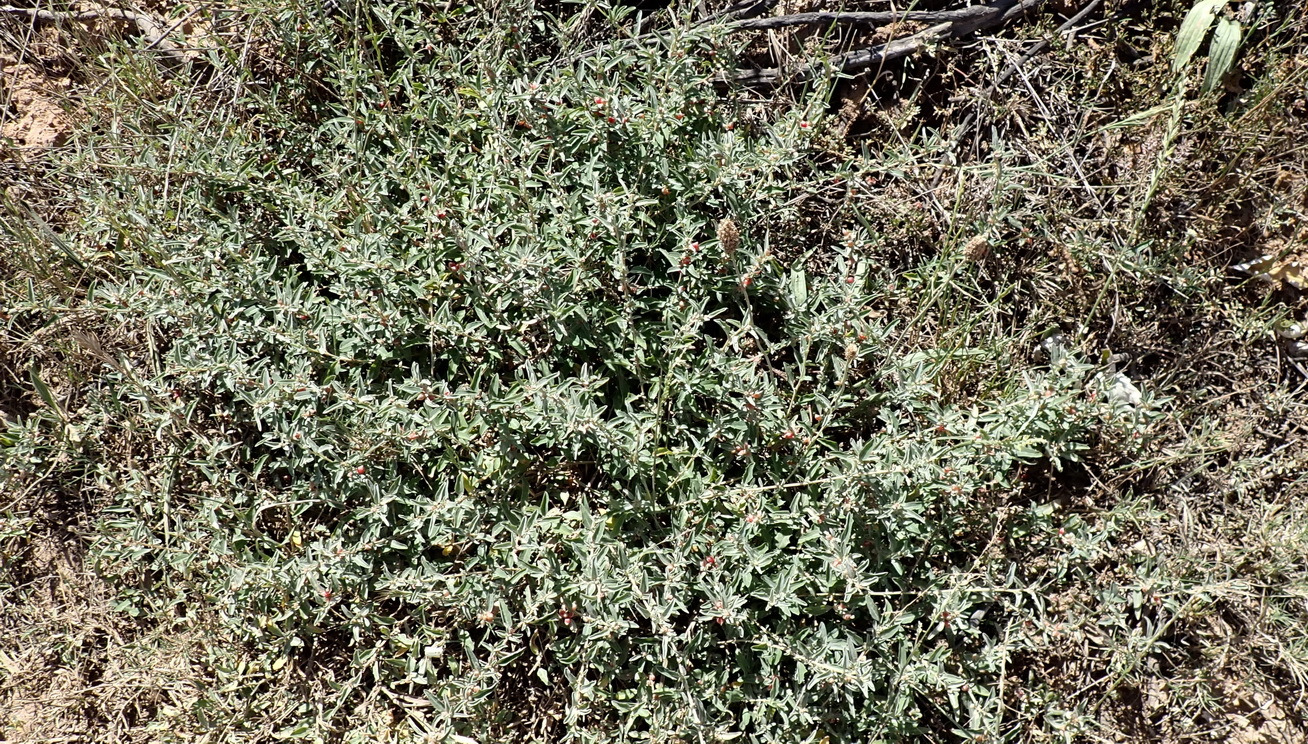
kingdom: Plantae
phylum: Tracheophyta
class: Magnoliopsida
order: Caryophyllales
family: Amaranthaceae
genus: Atriplex
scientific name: Atriplex semibaccata
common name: Australian saltbush
